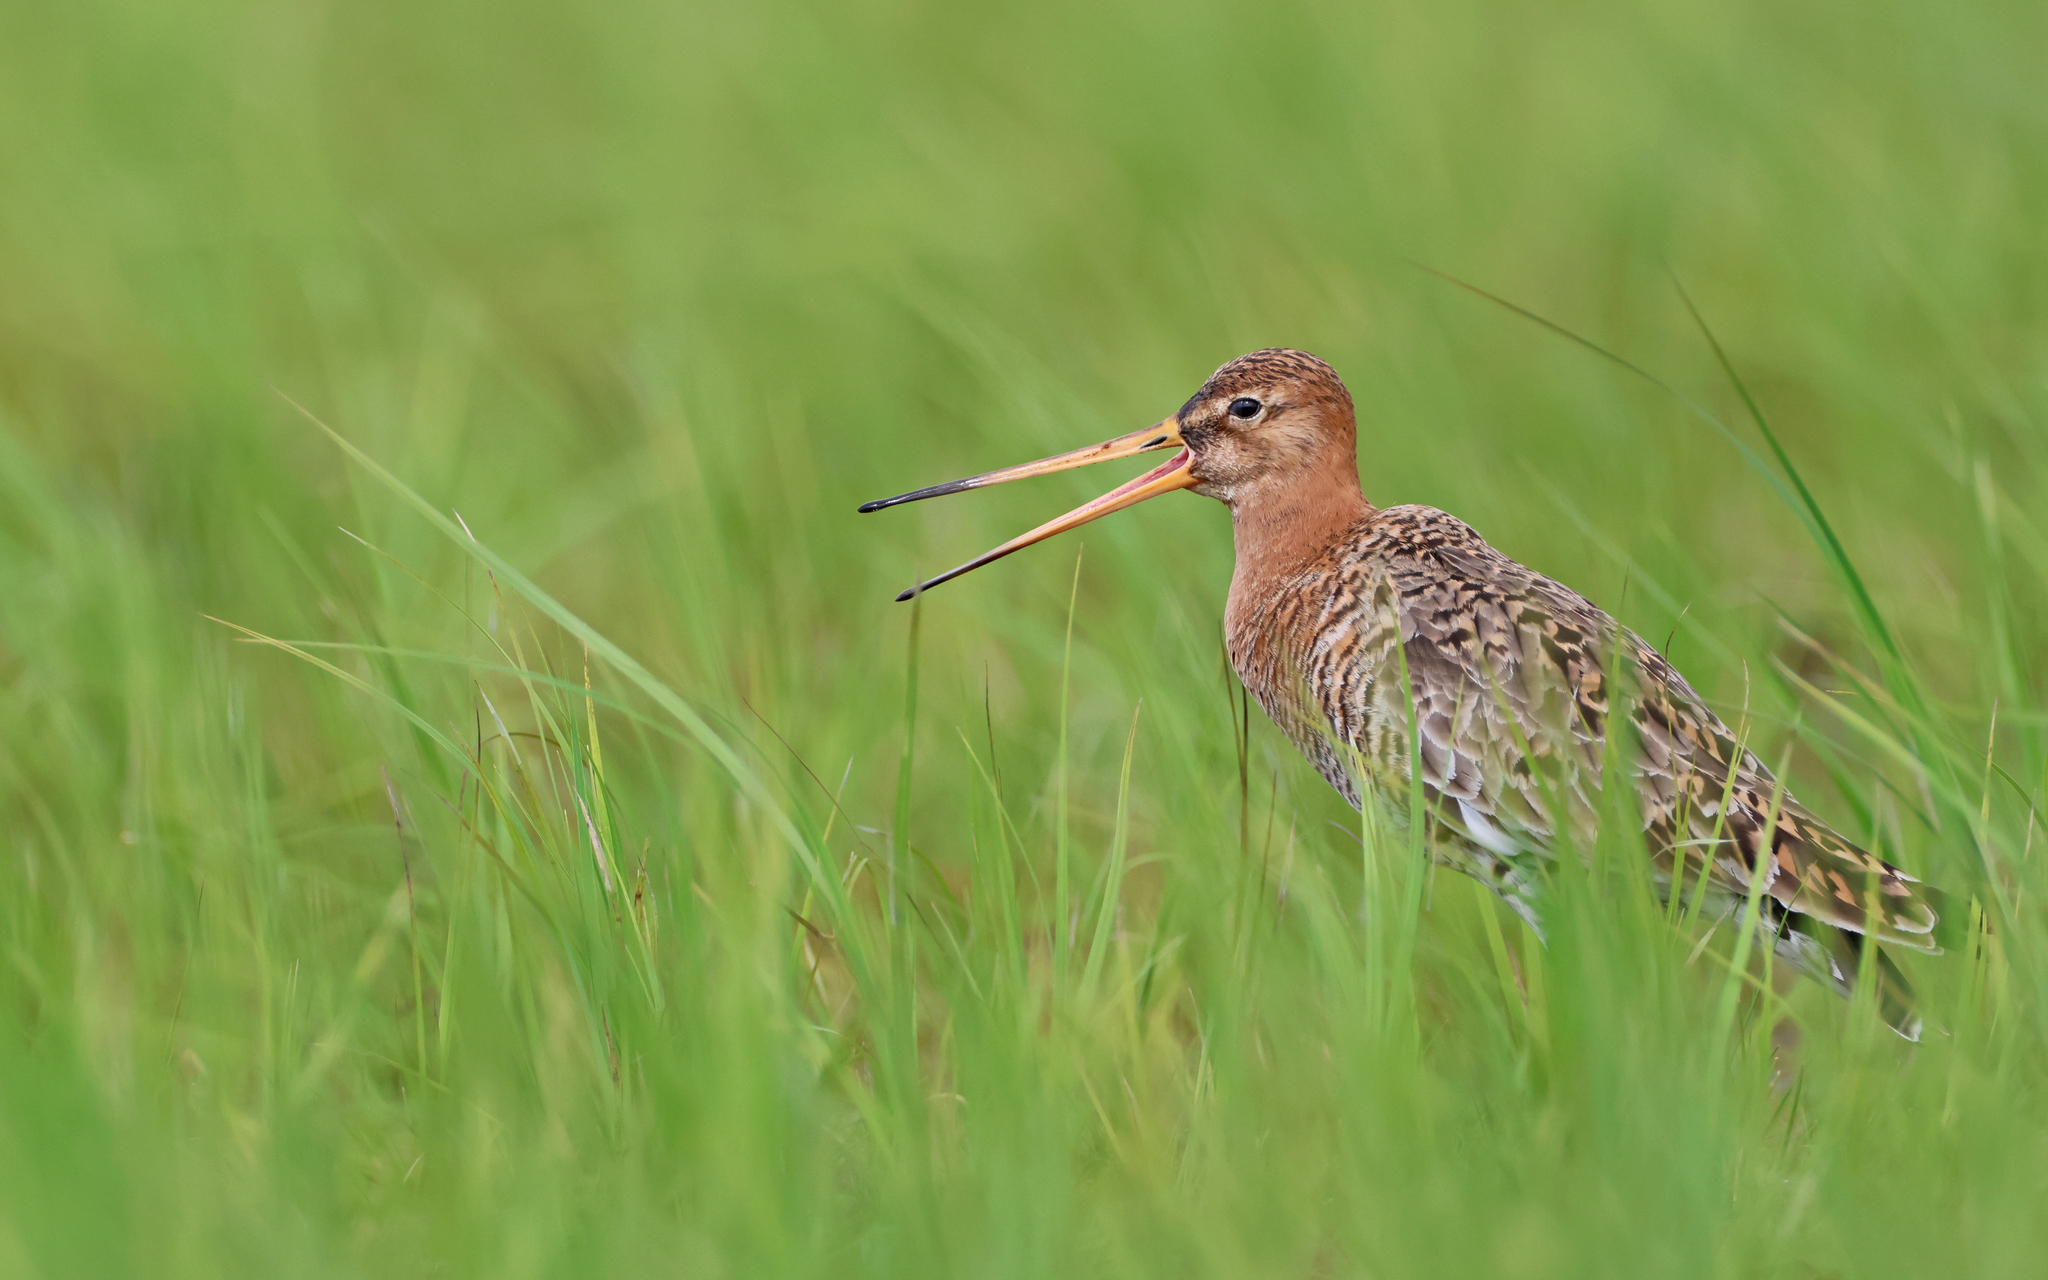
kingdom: Animalia
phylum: Chordata
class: Aves
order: Charadriiformes
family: Scolopacidae
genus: Limosa
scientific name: Limosa limosa
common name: Black-tailed godwit
